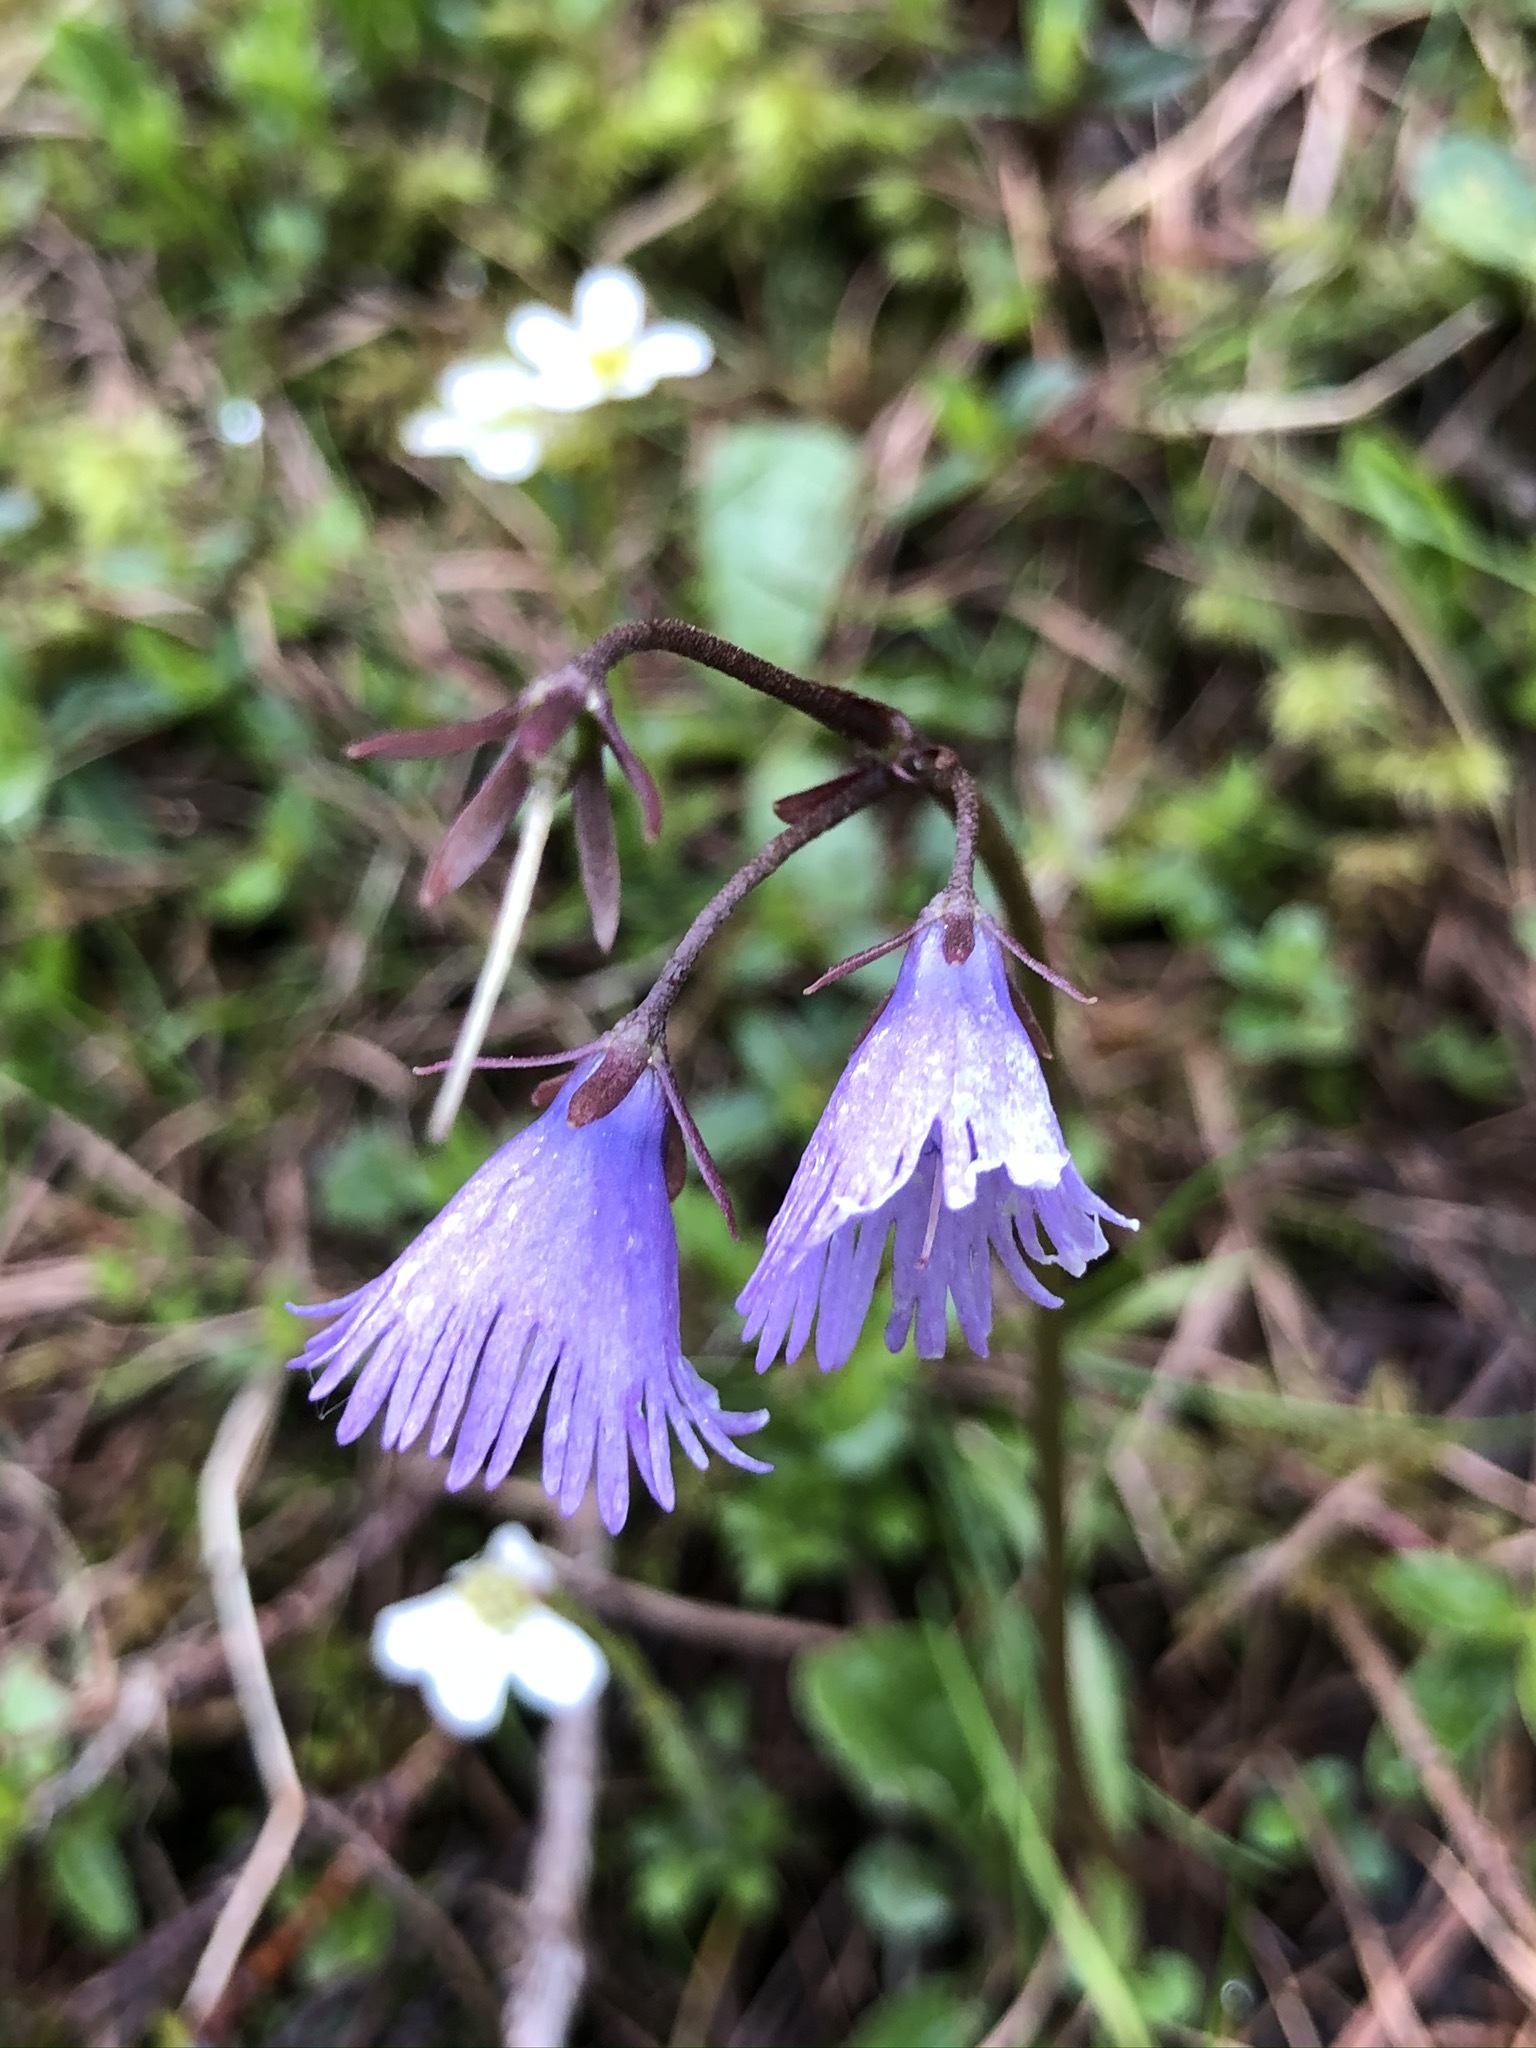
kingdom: Plantae
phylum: Tracheophyta
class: Magnoliopsida
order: Ericales
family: Primulaceae
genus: Soldanella
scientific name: Soldanella alpina
